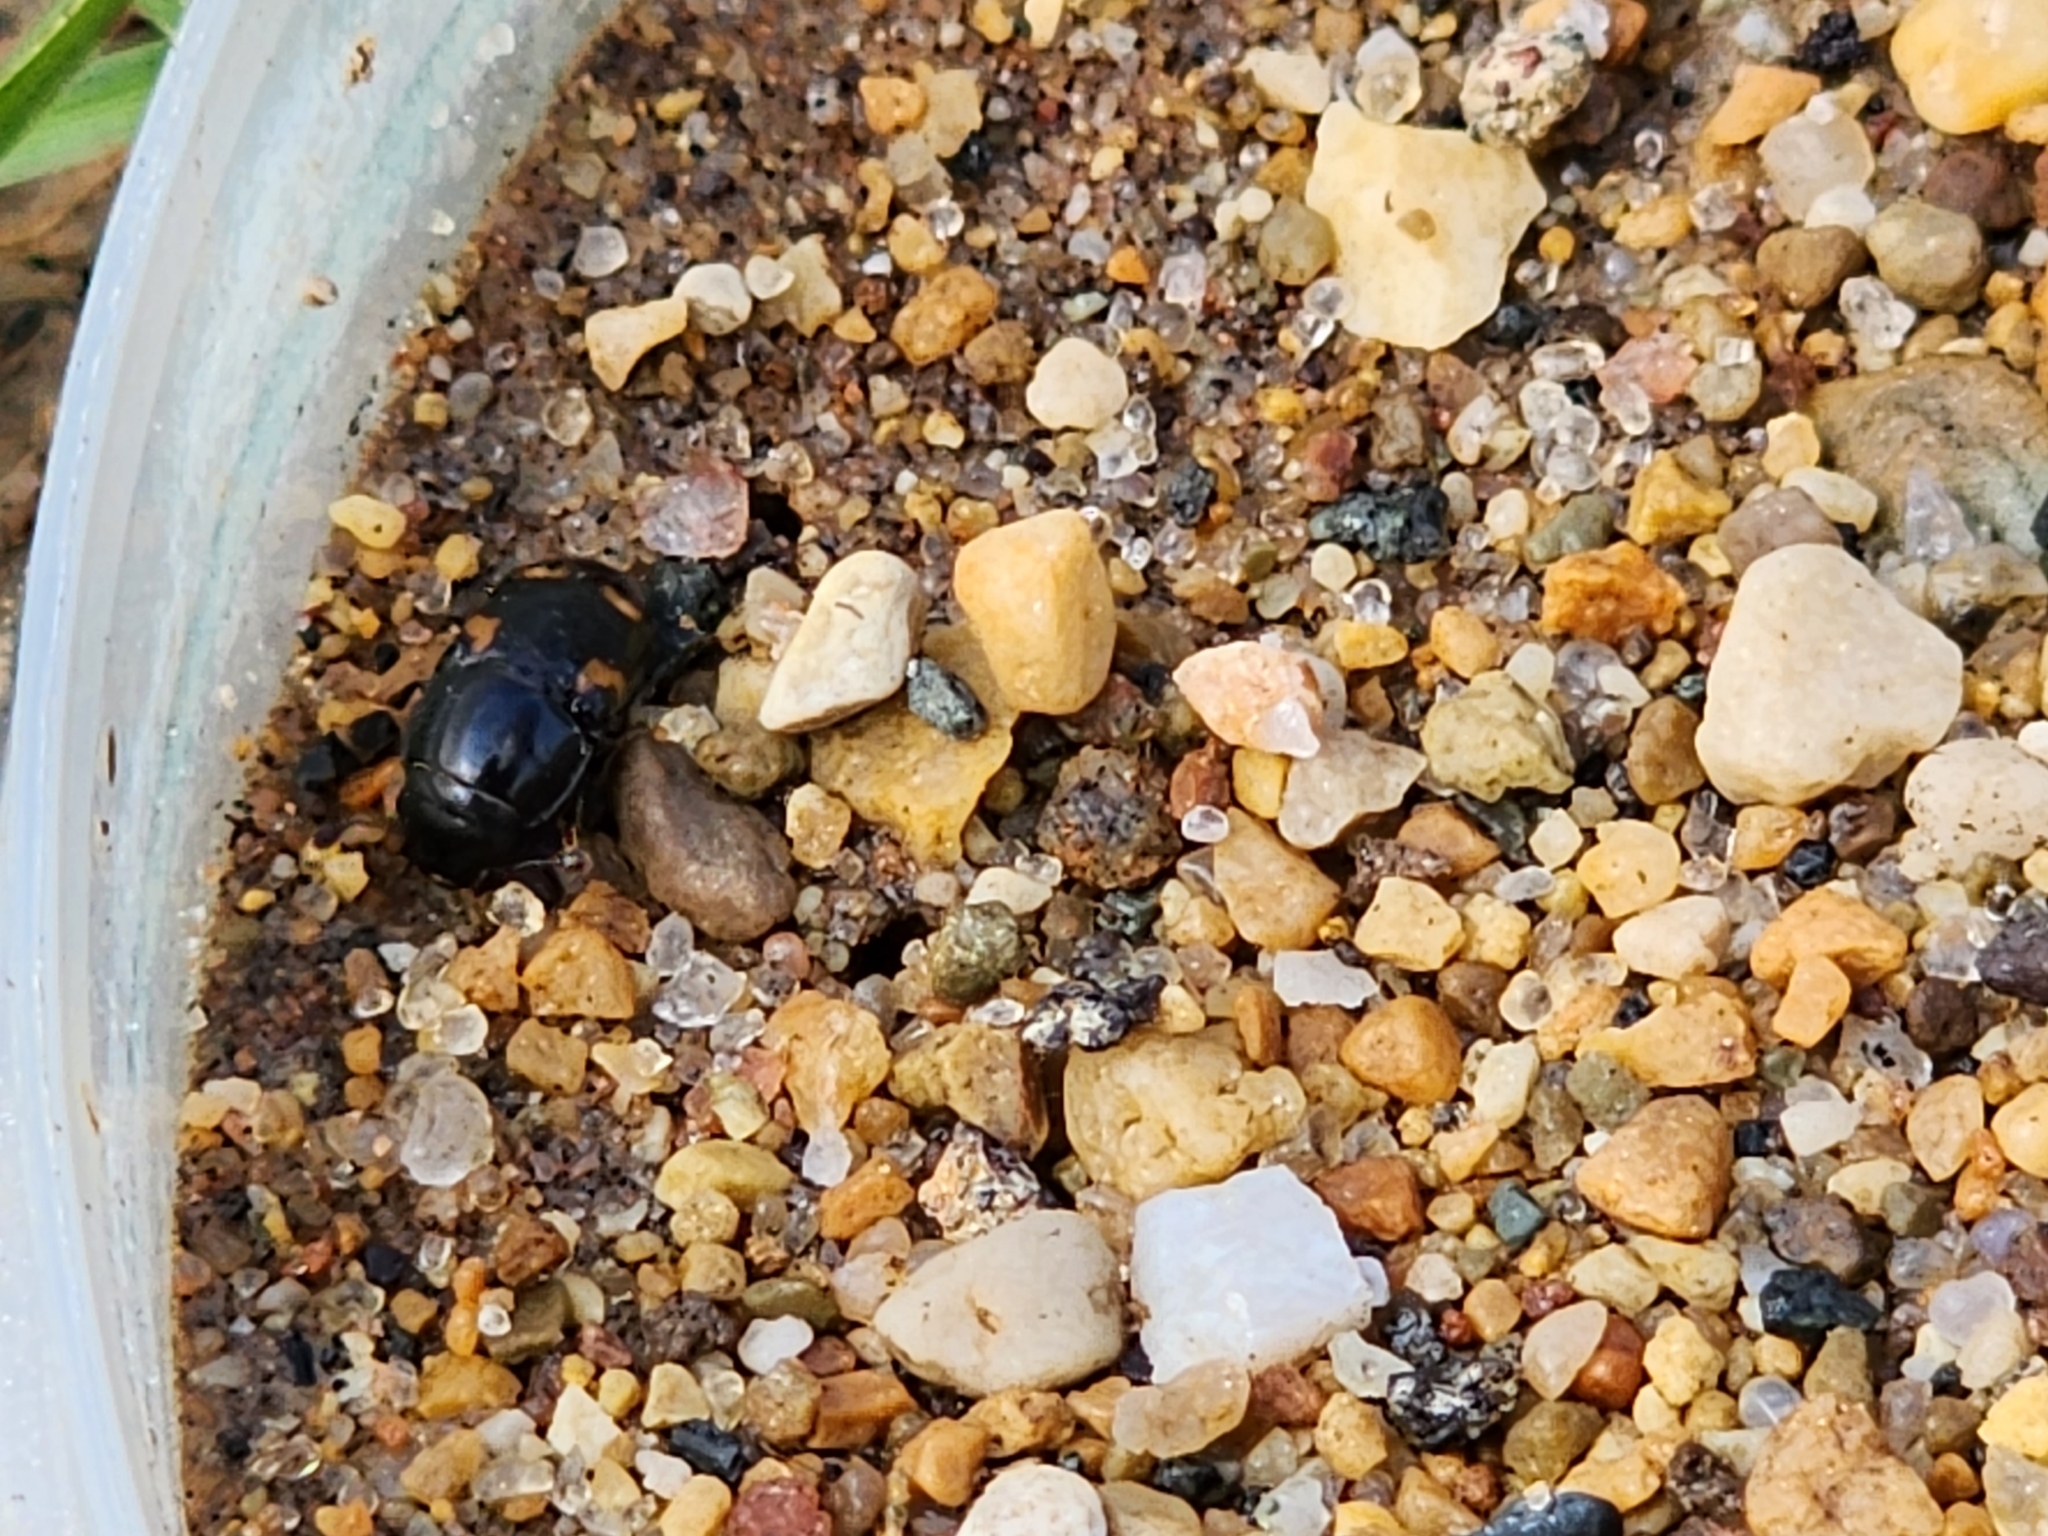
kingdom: Animalia
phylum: Arthropoda
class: Insecta
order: Coleoptera
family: Nitidulidae
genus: Glischrochilus
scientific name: Glischrochilus quadrisignatus
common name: Picnic beetle
